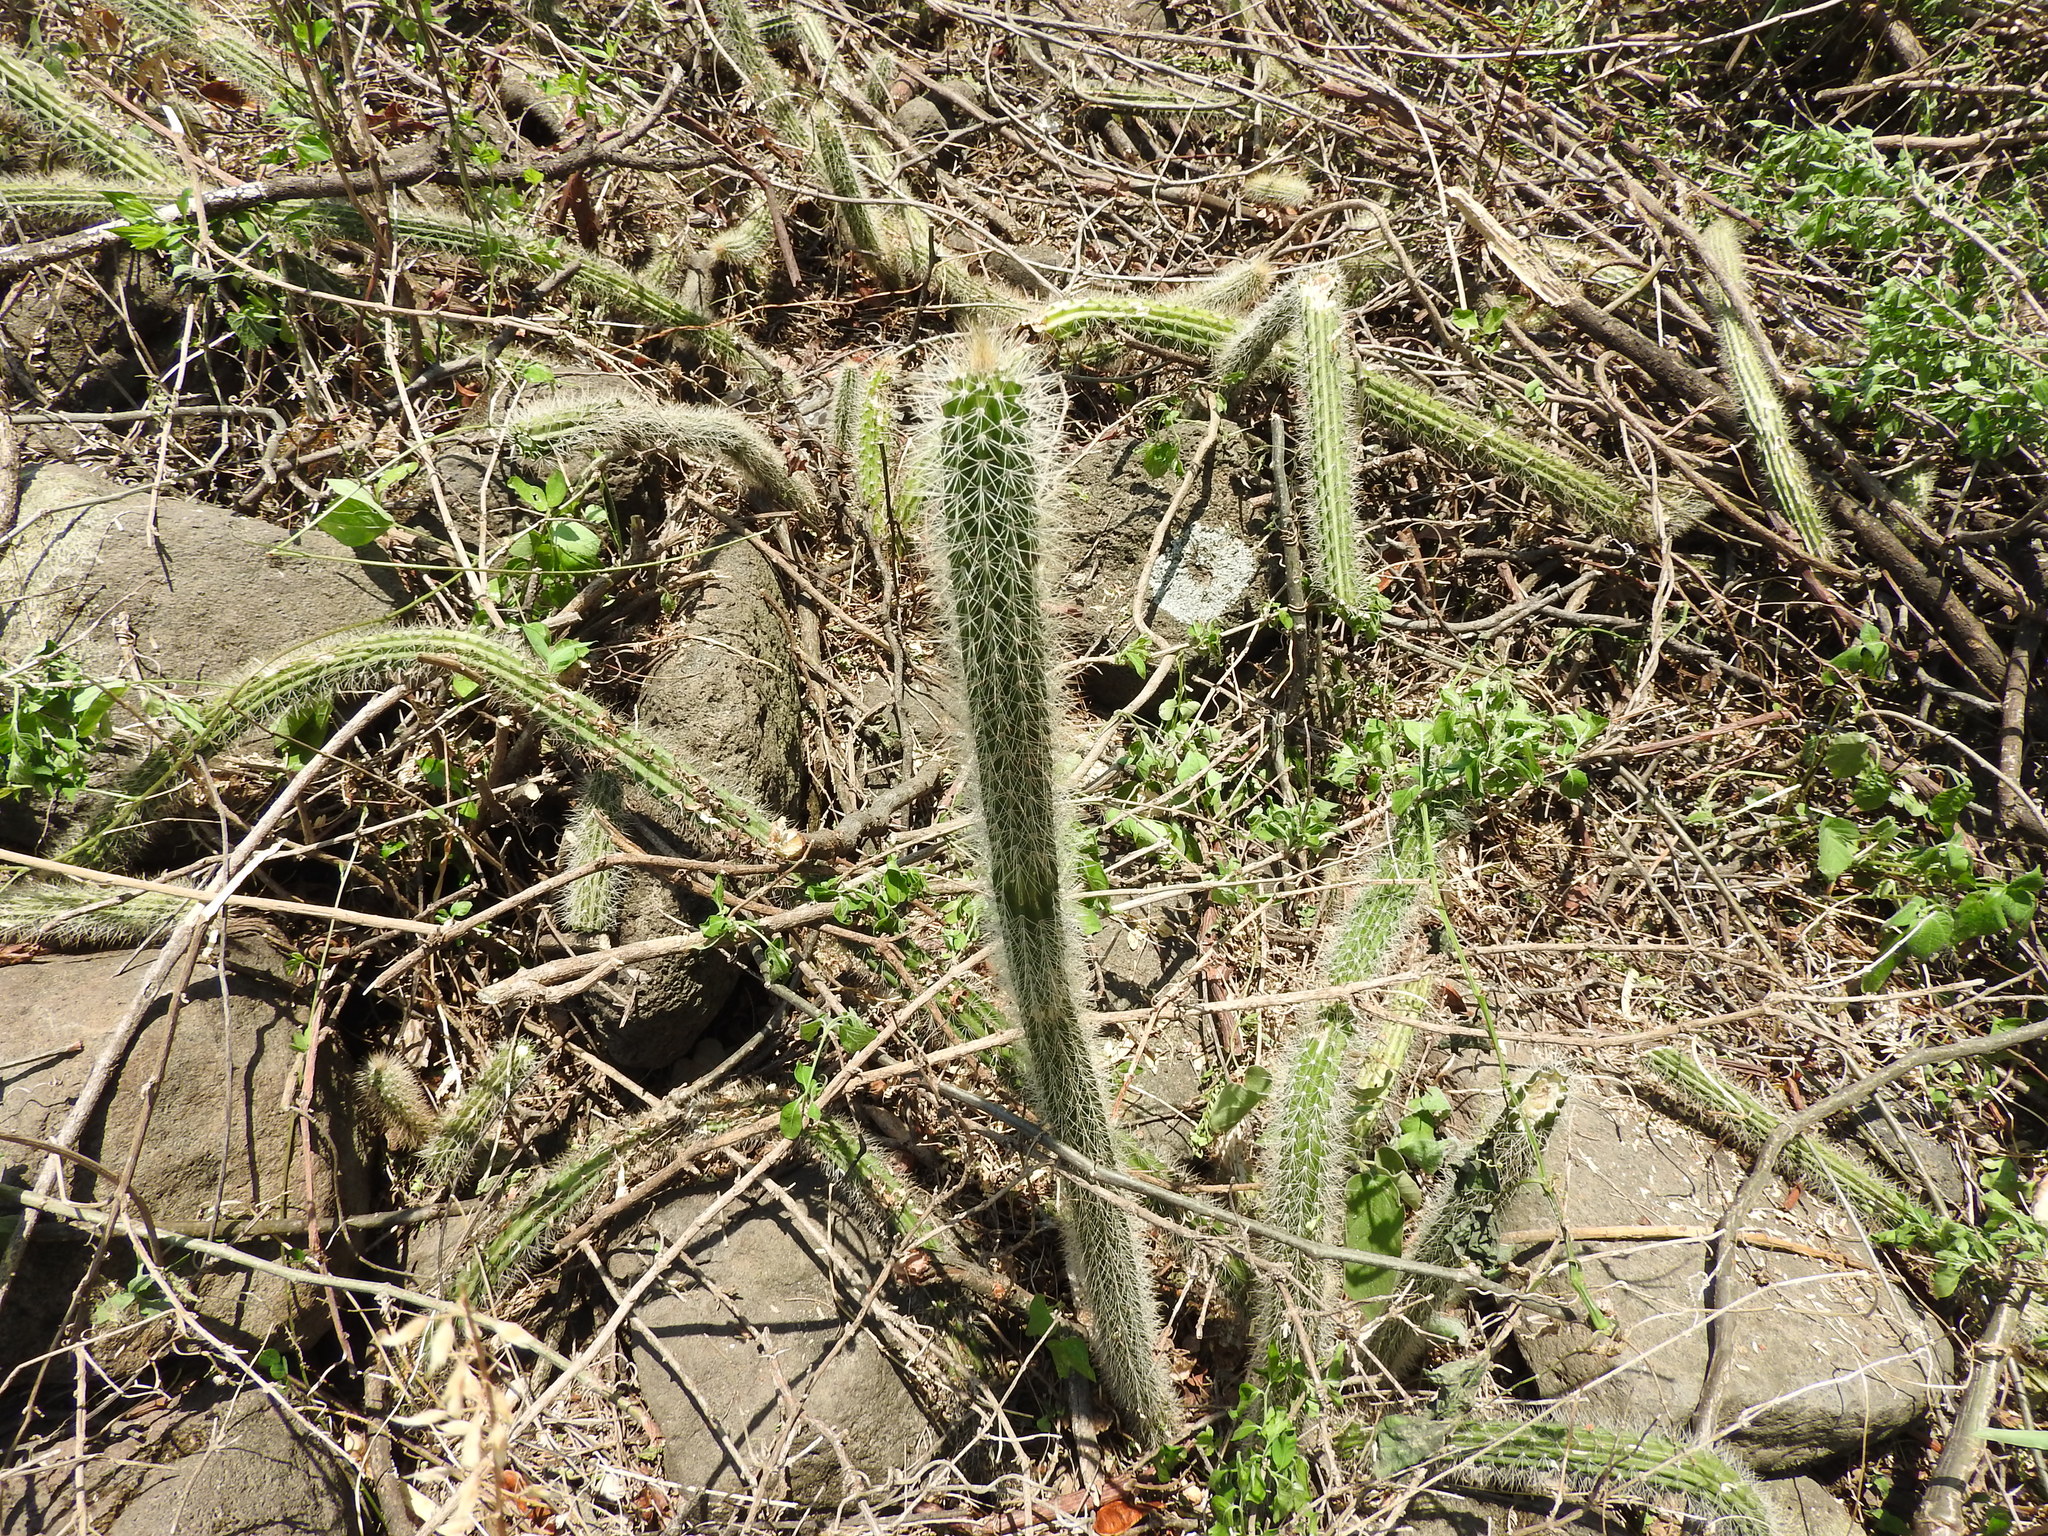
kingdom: Plantae
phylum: Tracheophyta
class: Magnoliopsida
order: Caryophyllales
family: Cactaceae
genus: Peniocereus
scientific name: Peniocereus serpentinus
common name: Serpent cactus
